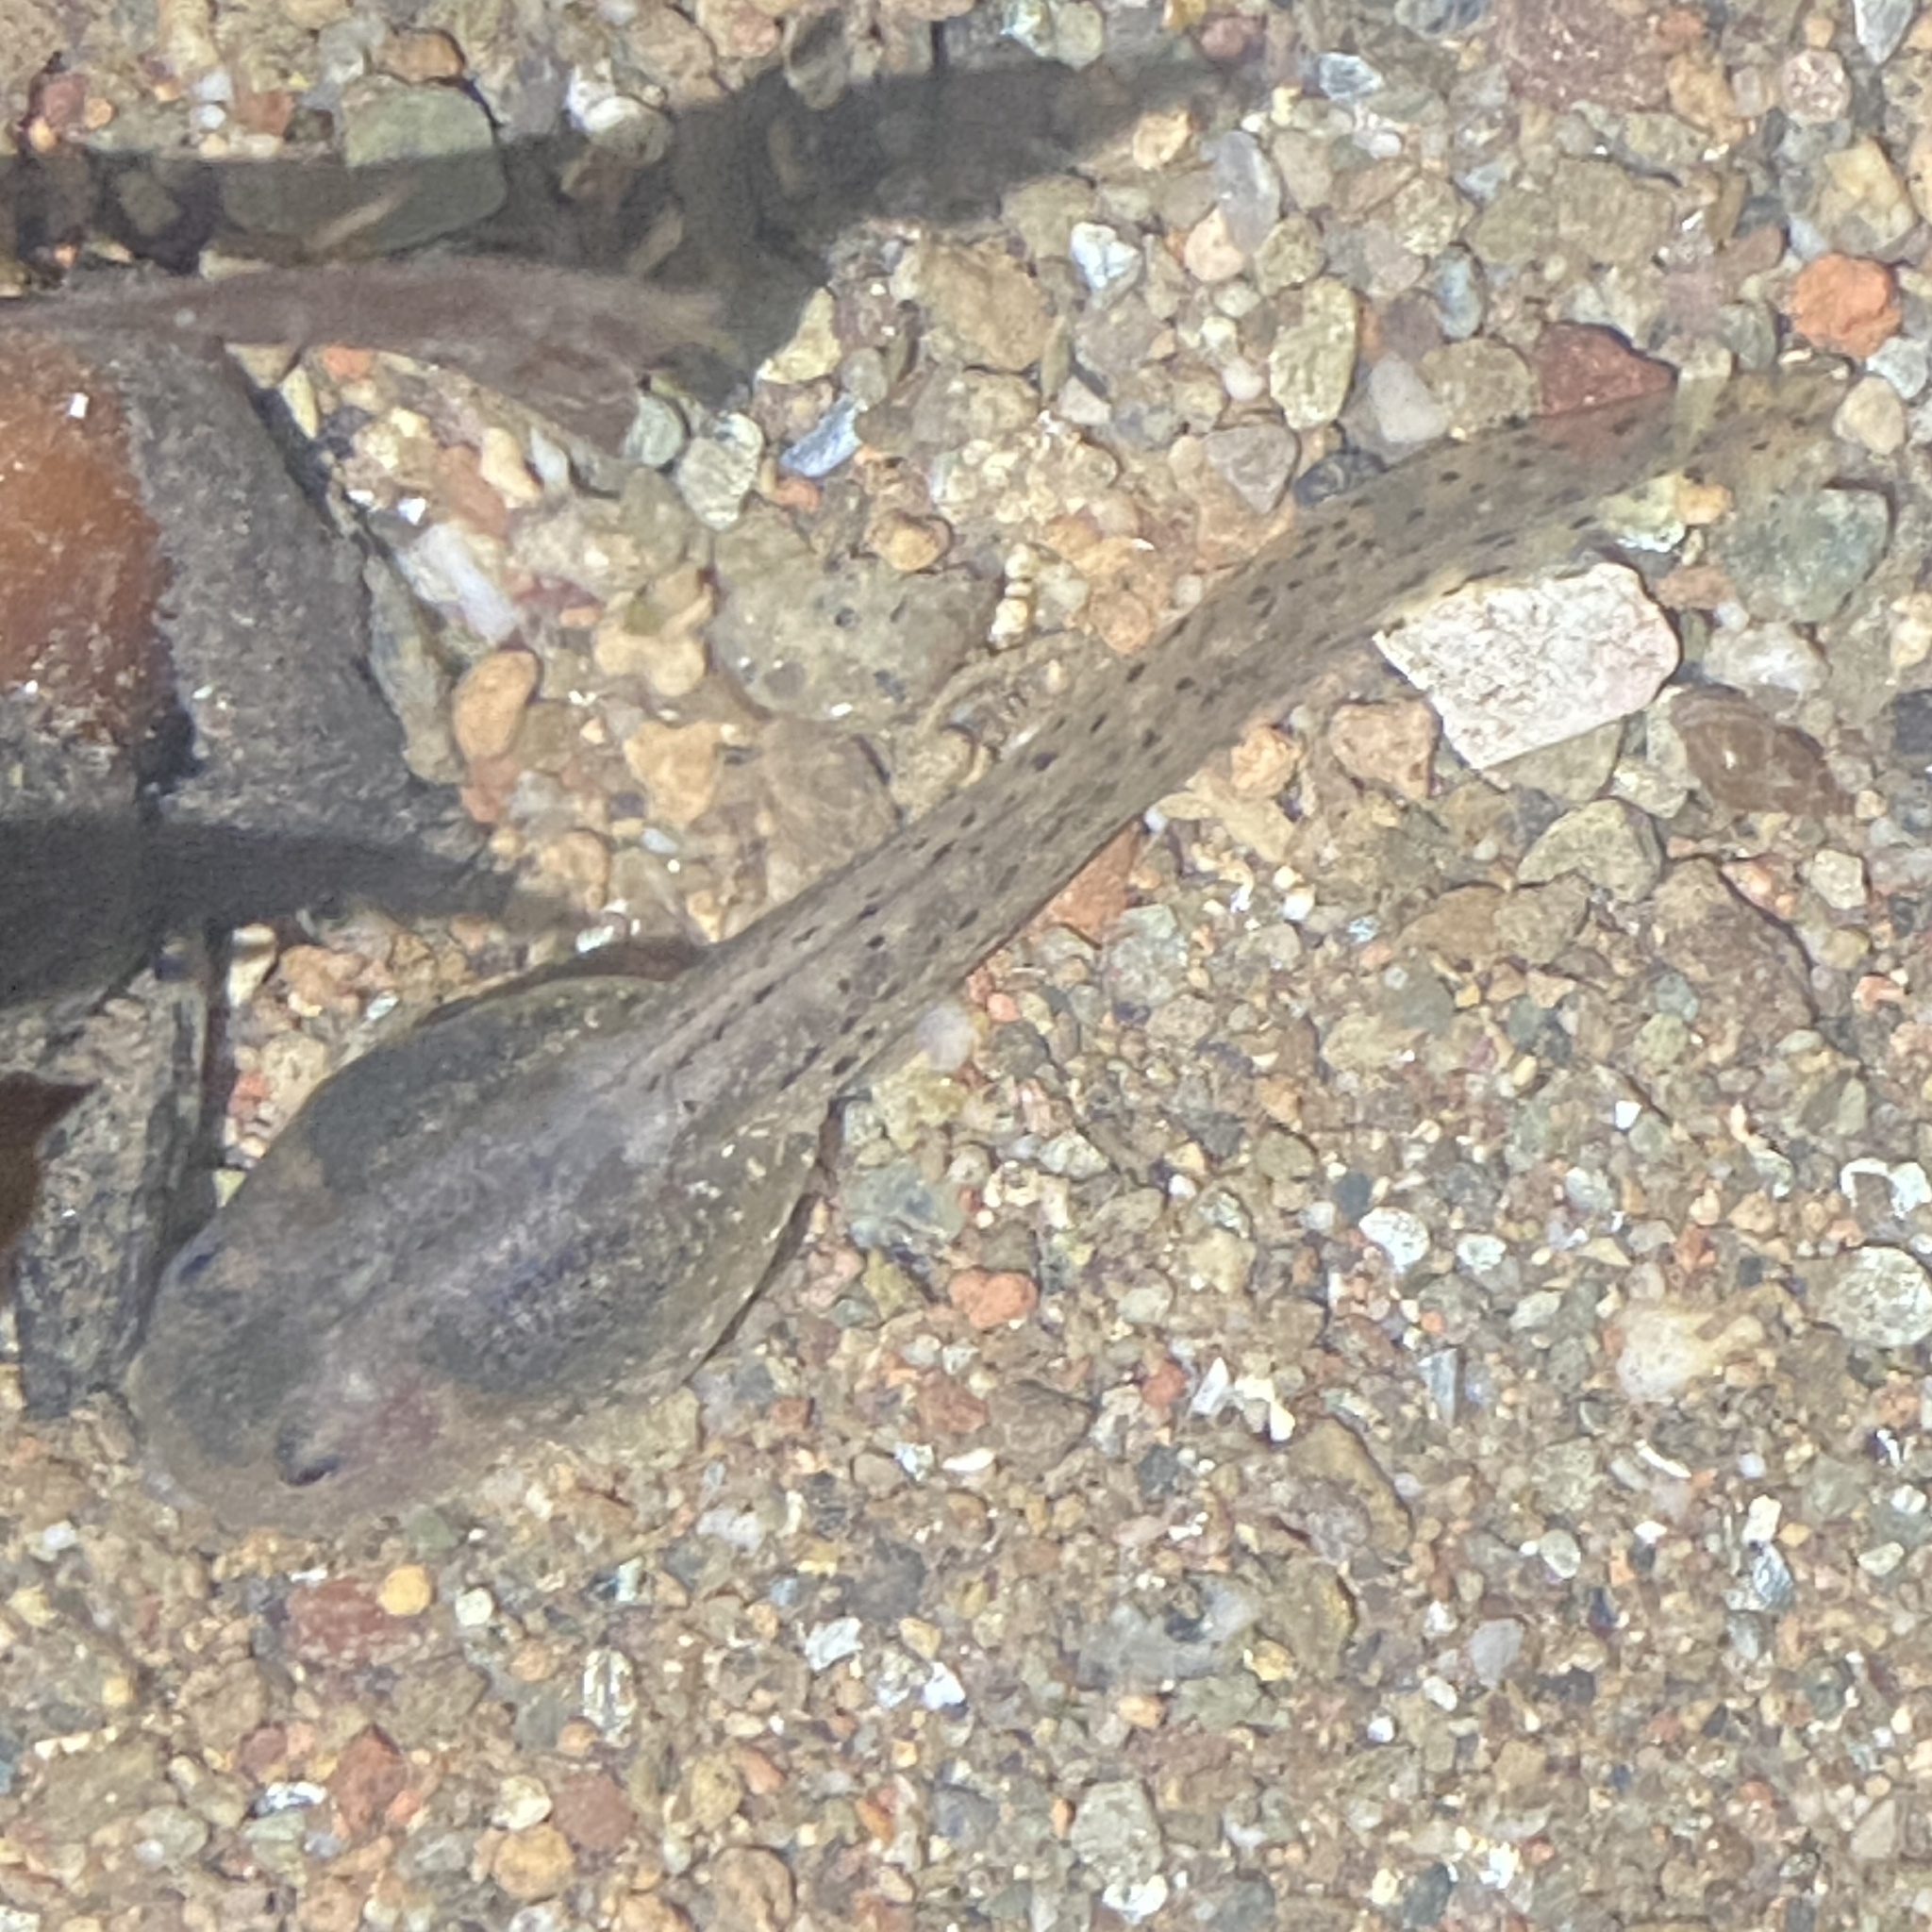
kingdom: Animalia
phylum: Chordata
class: Amphibia
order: Anura
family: Alytidae
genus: Alytes
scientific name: Alytes obstetricans
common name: Midwife toad
